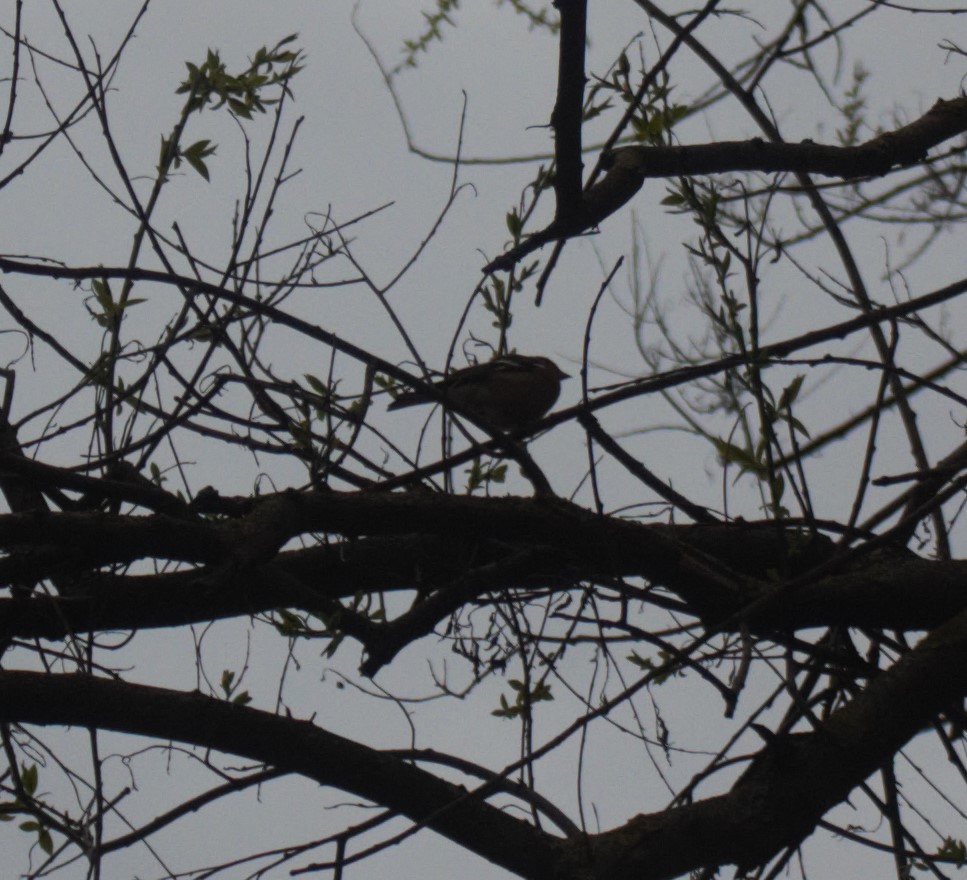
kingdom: Animalia
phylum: Chordata
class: Aves
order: Passeriformes
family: Fringillidae
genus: Fringilla
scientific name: Fringilla coelebs
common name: Common chaffinch
